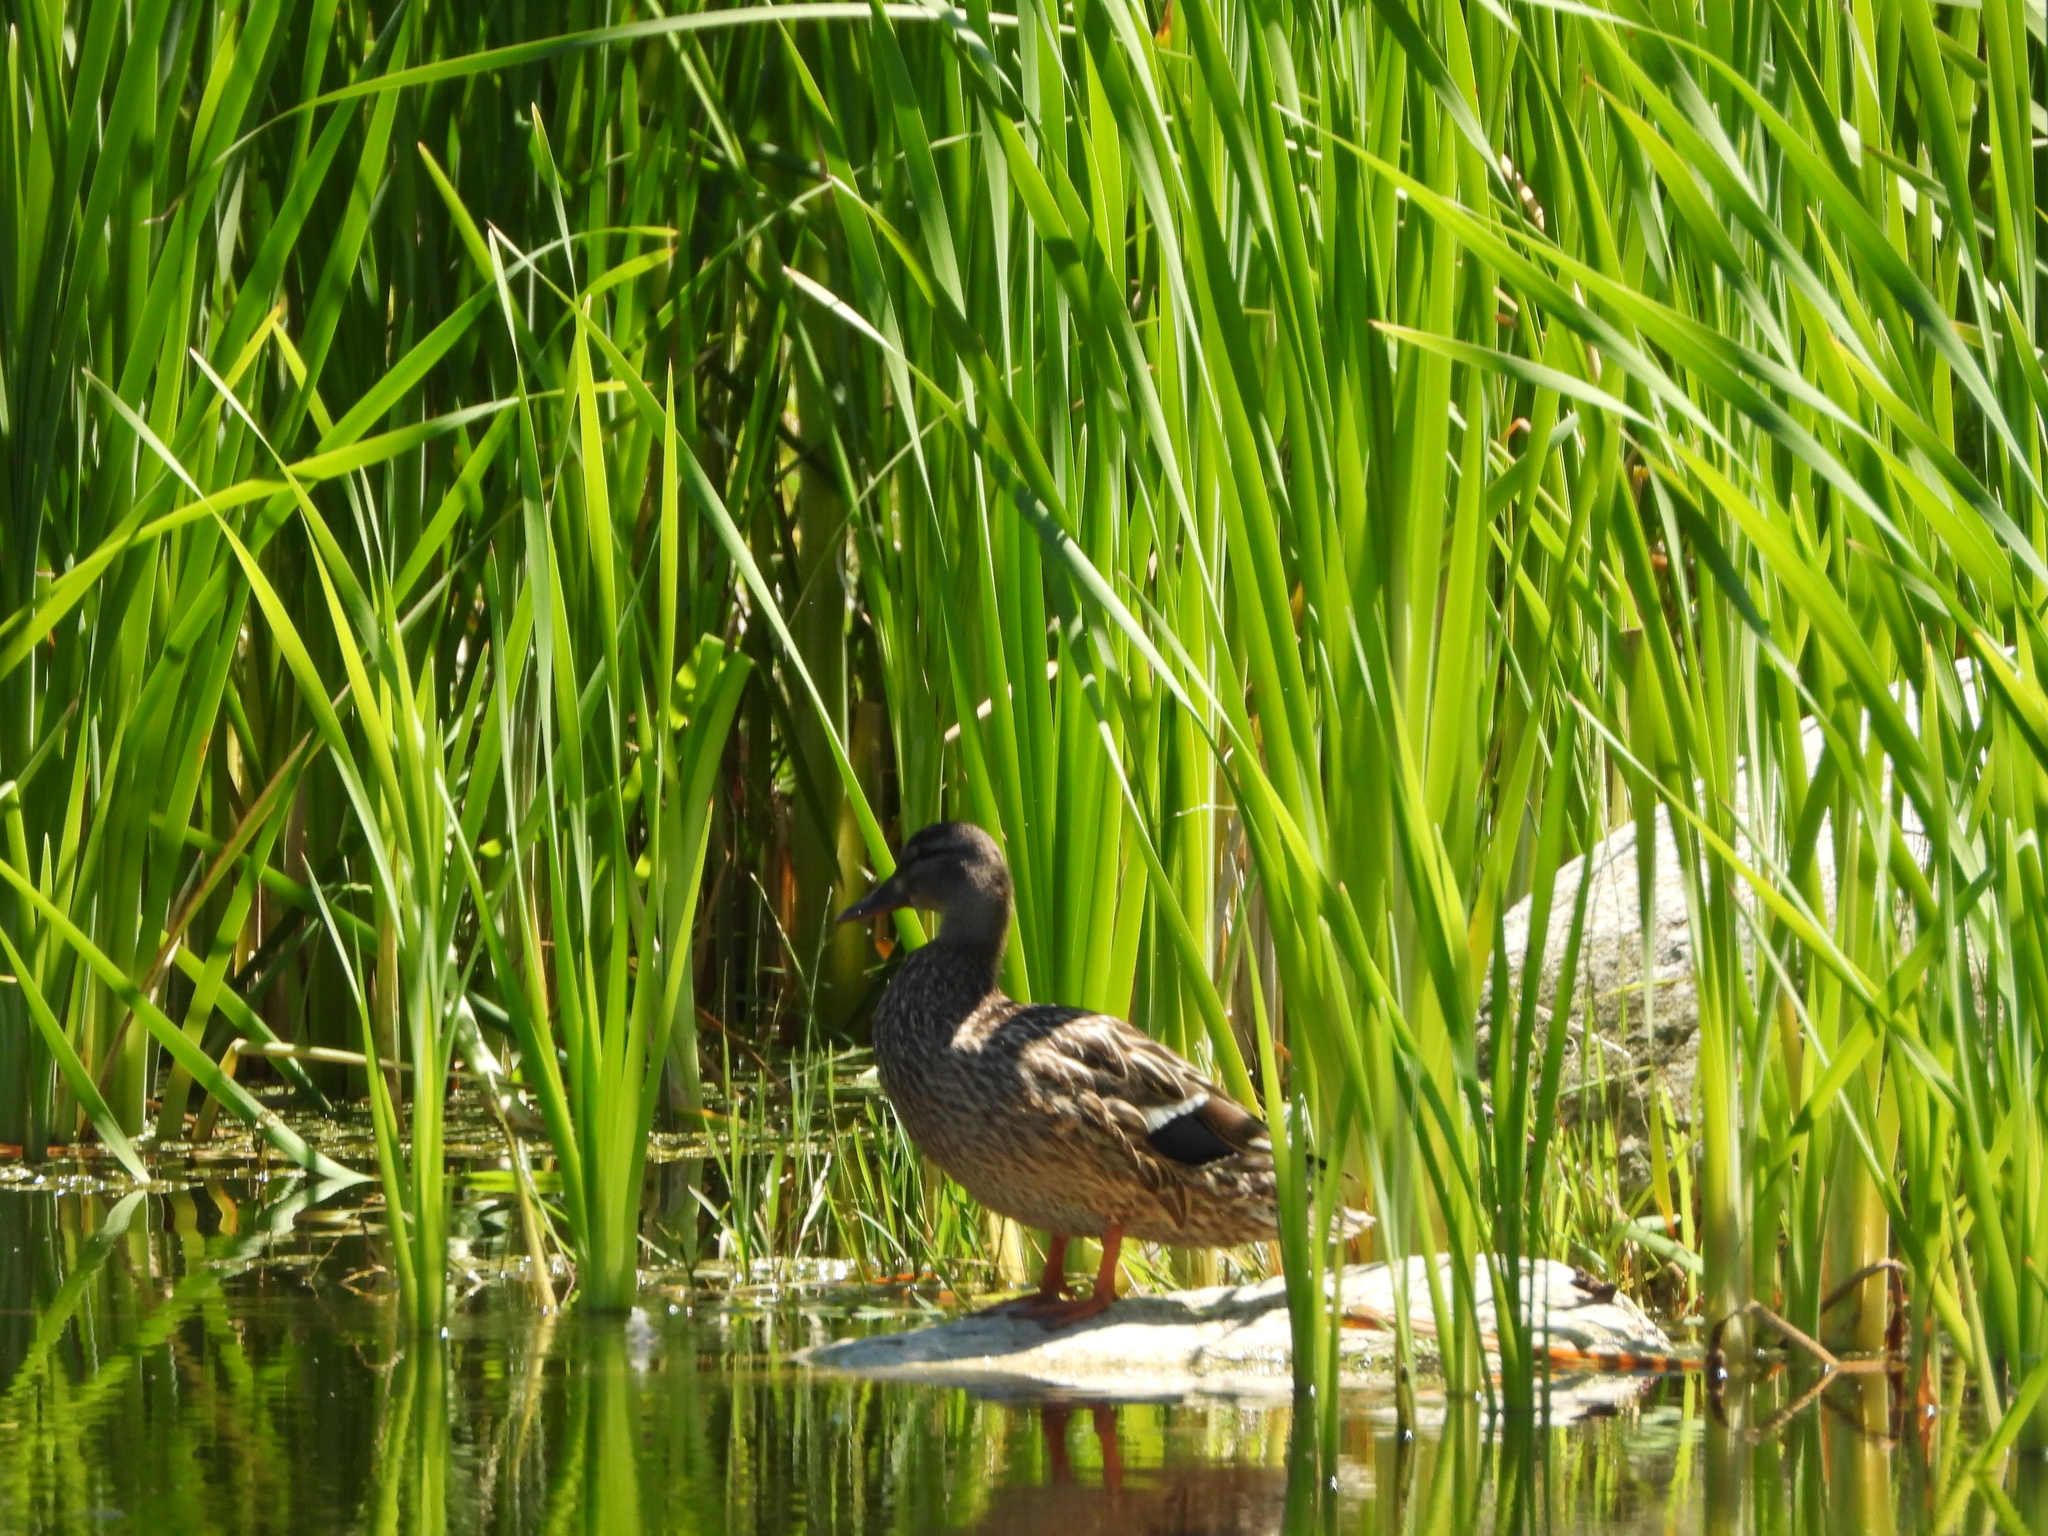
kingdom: Animalia
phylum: Chordata
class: Aves
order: Anseriformes
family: Anatidae
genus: Anas
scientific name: Anas platyrhynchos
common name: Mallard
